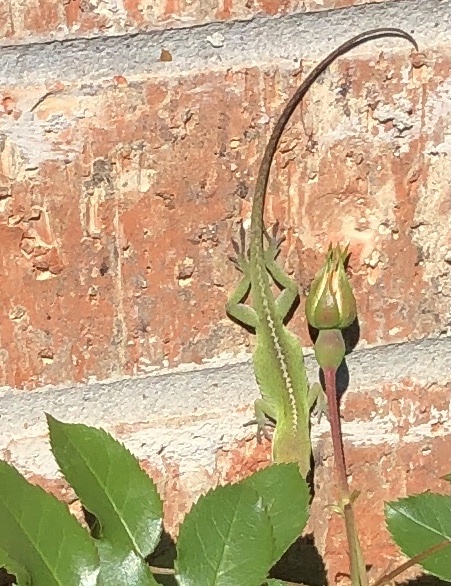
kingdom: Animalia
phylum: Chordata
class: Squamata
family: Dactyloidae
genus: Anolis
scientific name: Anolis carolinensis
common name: Green anole
